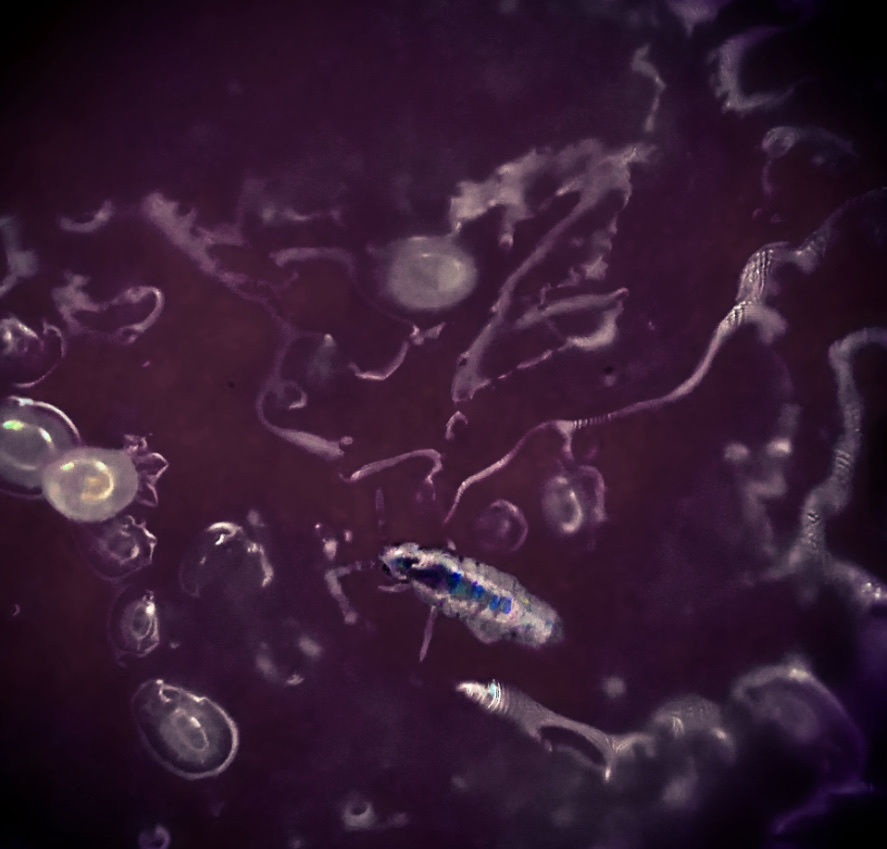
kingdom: Animalia
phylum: Arthropoda
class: Collembola
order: Entomobryomorpha
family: Entomobryidae
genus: Lepidocyrtus
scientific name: Lepidocyrtus fimicolus
